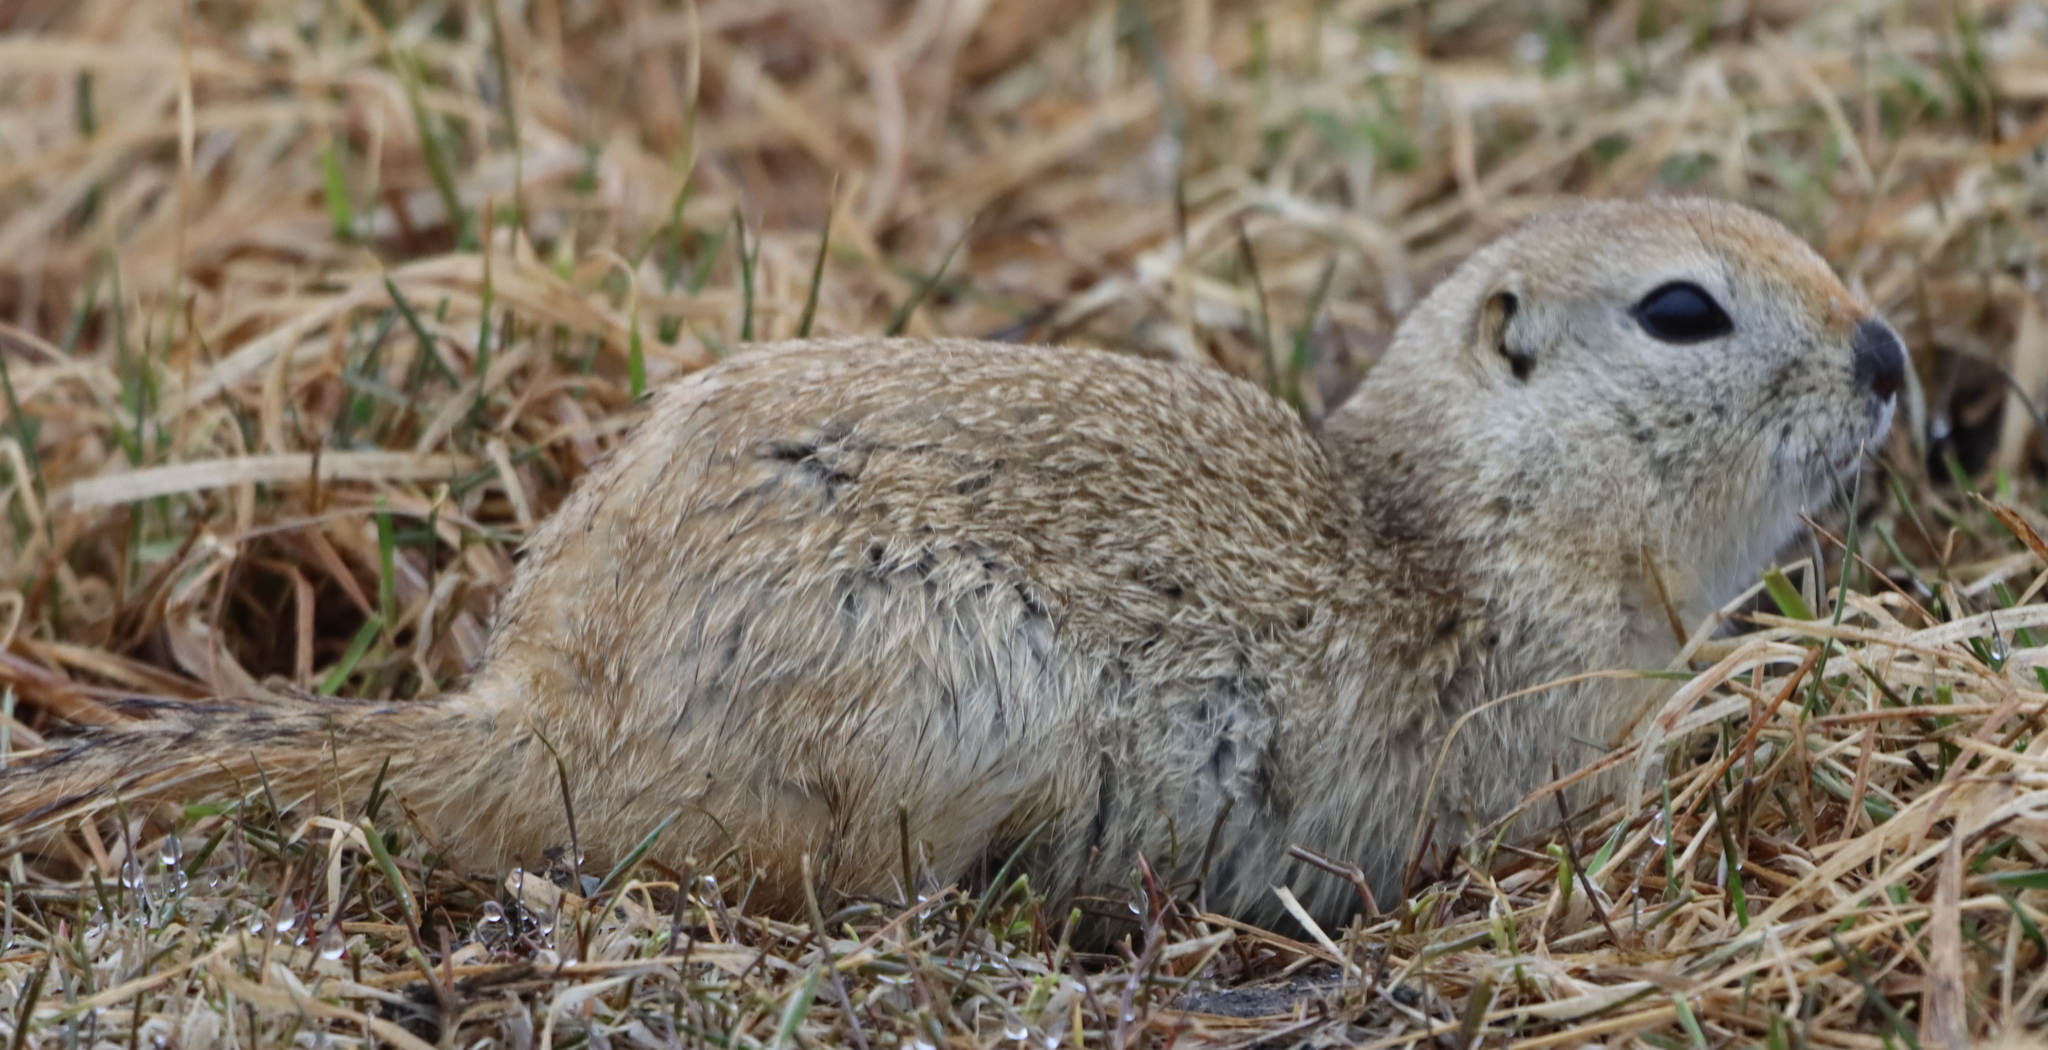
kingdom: Animalia
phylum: Chordata
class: Mammalia
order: Rodentia
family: Sciuridae
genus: Urocitellus
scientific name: Urocitellus richardsonii
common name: Richardson's ground squirrel
